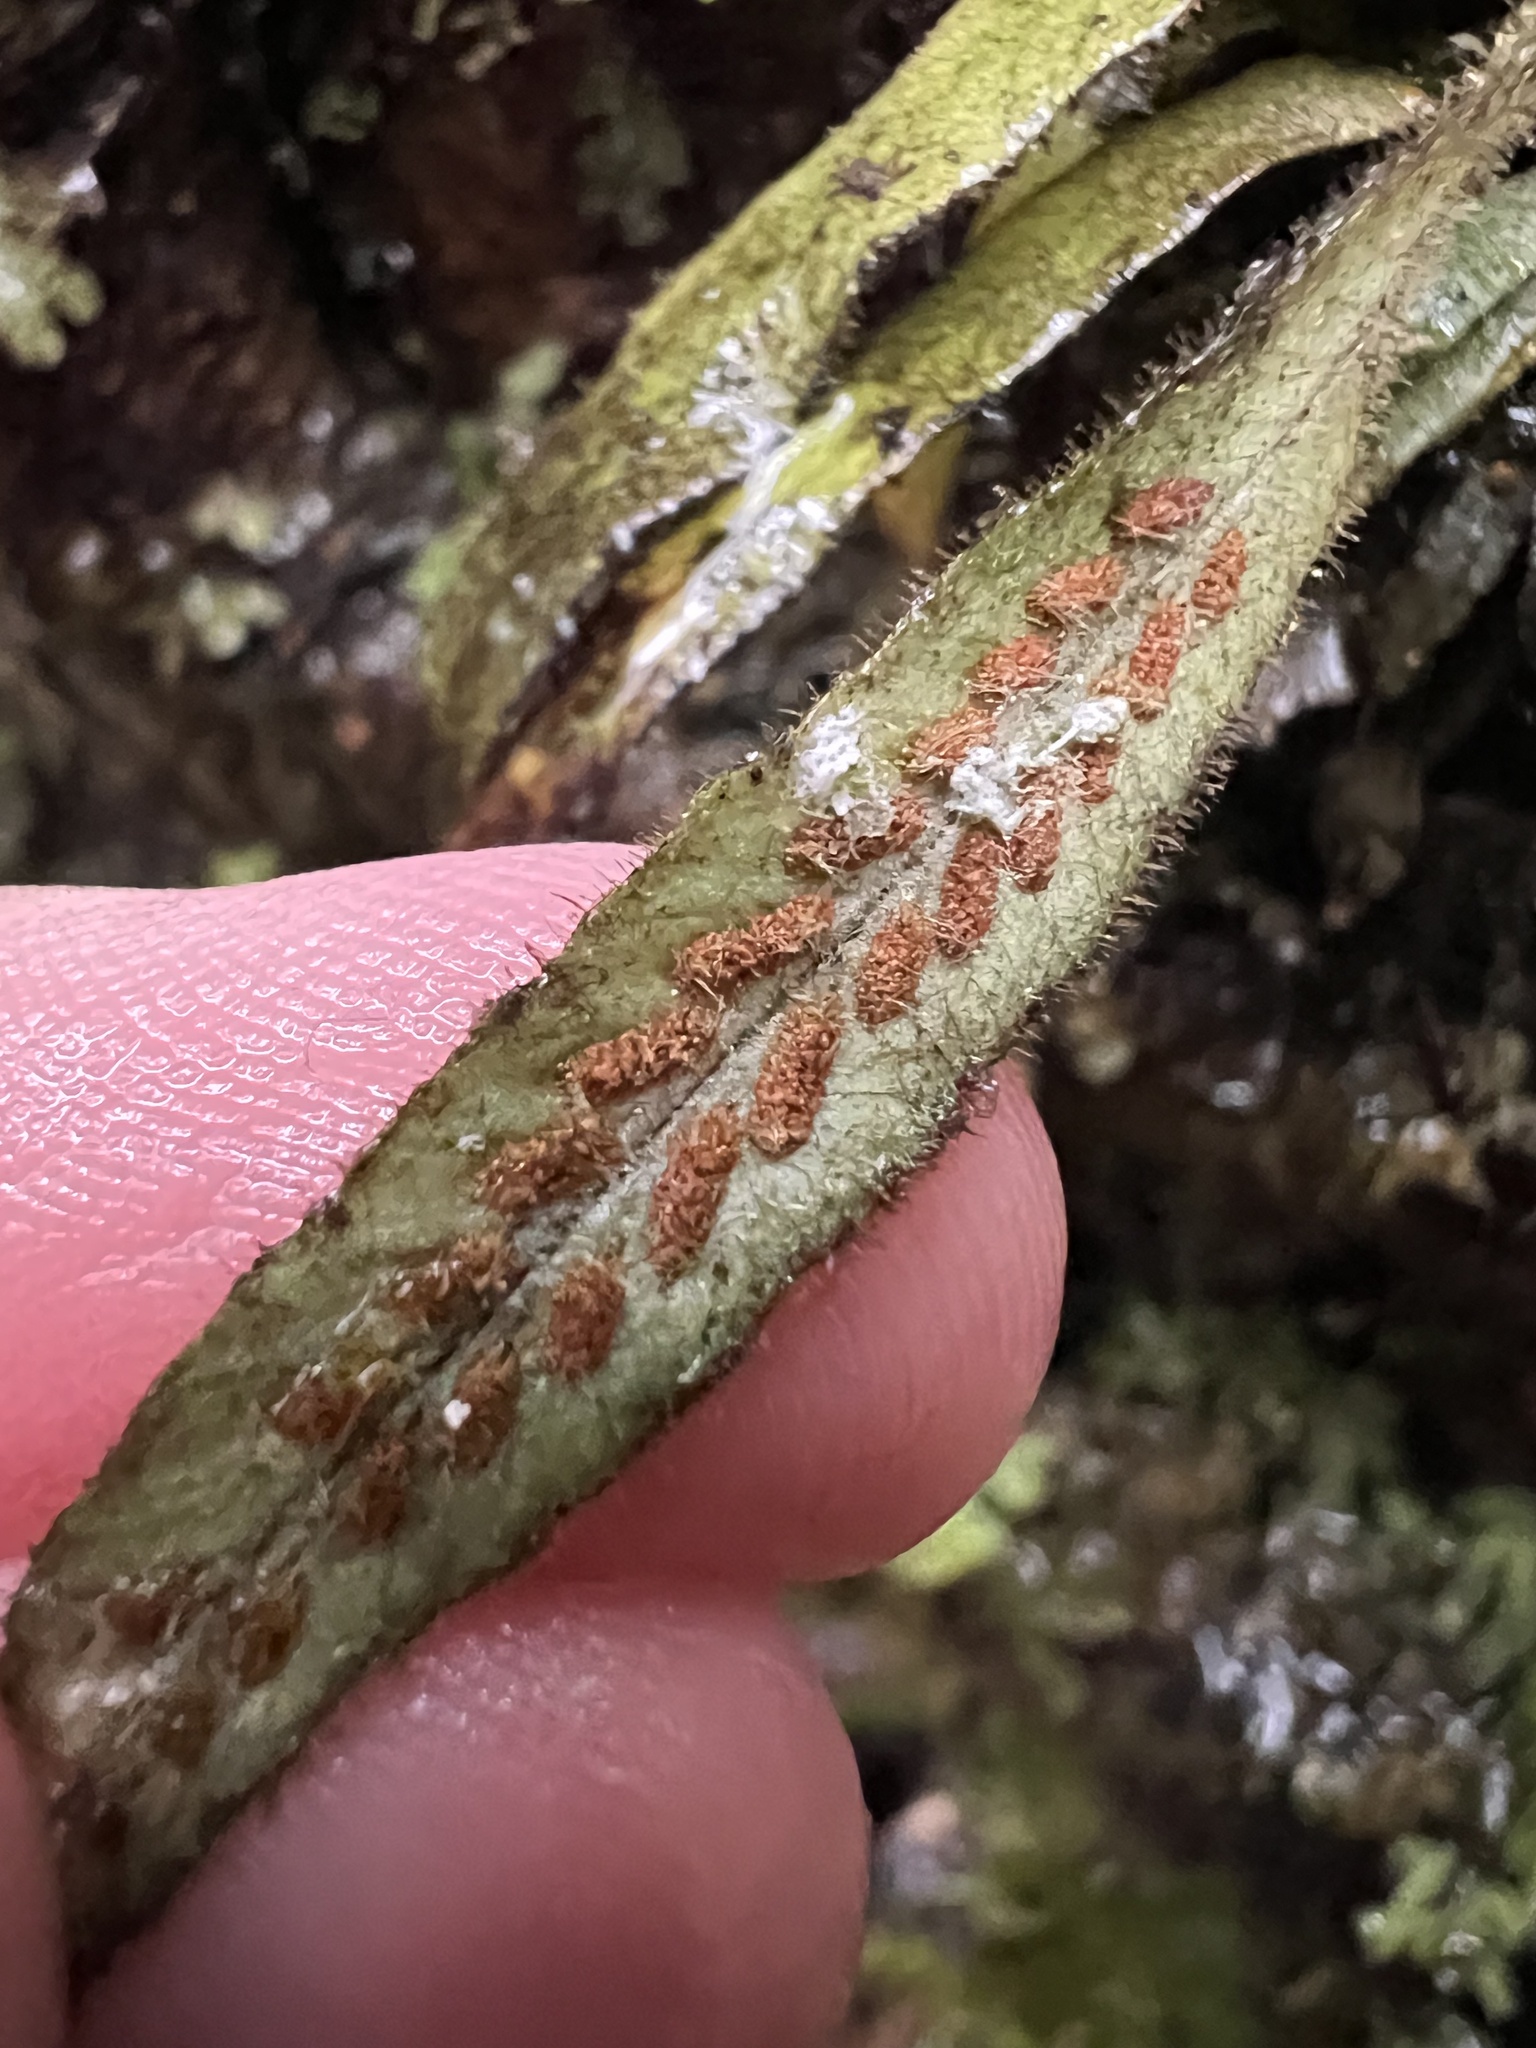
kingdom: Plantae
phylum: Tracheophyta
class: Polypodiopsida
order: Polypodiales
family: Polypodiaceae
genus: Notogrammitis
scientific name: Notogrammitis pseudociliata
